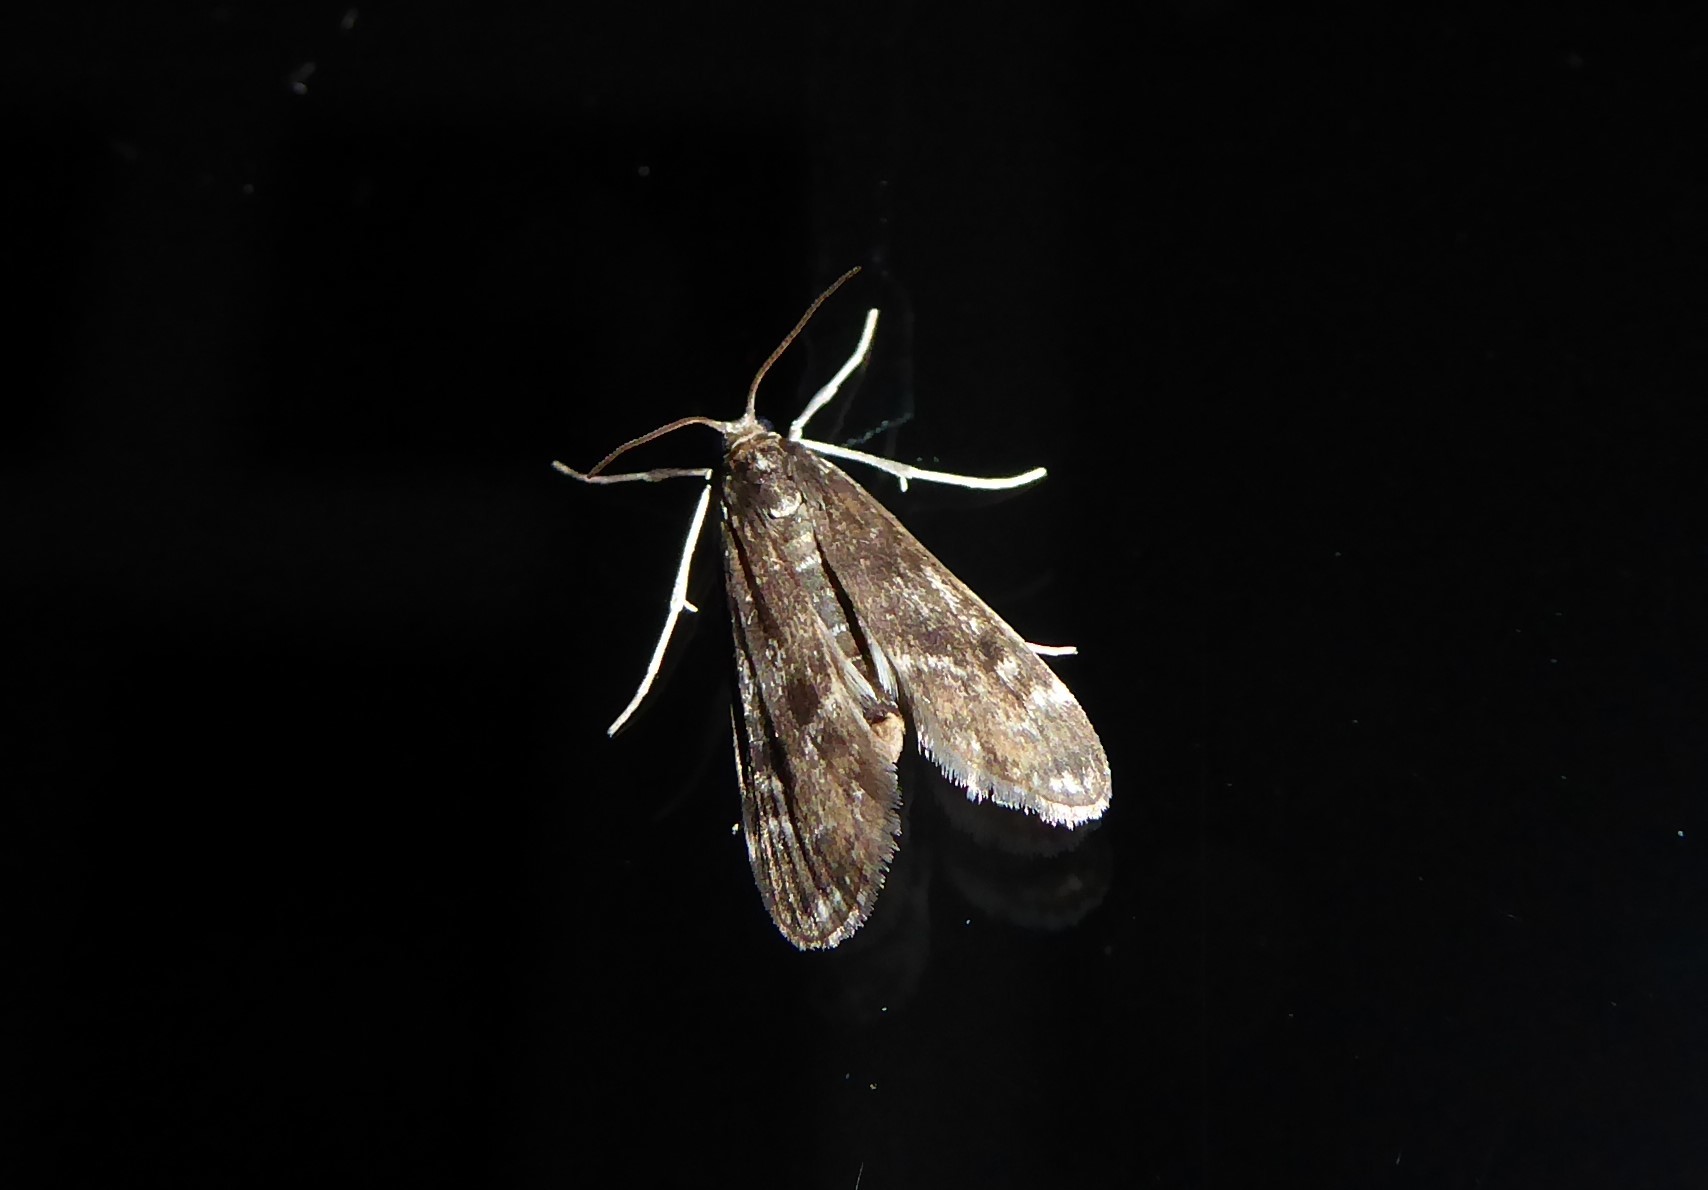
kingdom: Animalia
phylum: Arthropoda
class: Insecta
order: Lepidoptera
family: Crambidae
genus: Hygraula
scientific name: Hygraula nitens
